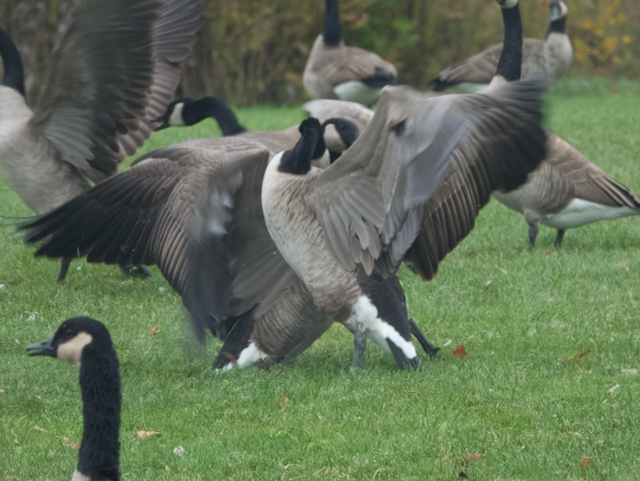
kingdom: Animalia
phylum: Chordata
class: Aves
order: Anseriformes
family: Anatidae
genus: Branta
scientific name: Branta canadensis
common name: Canada goose
